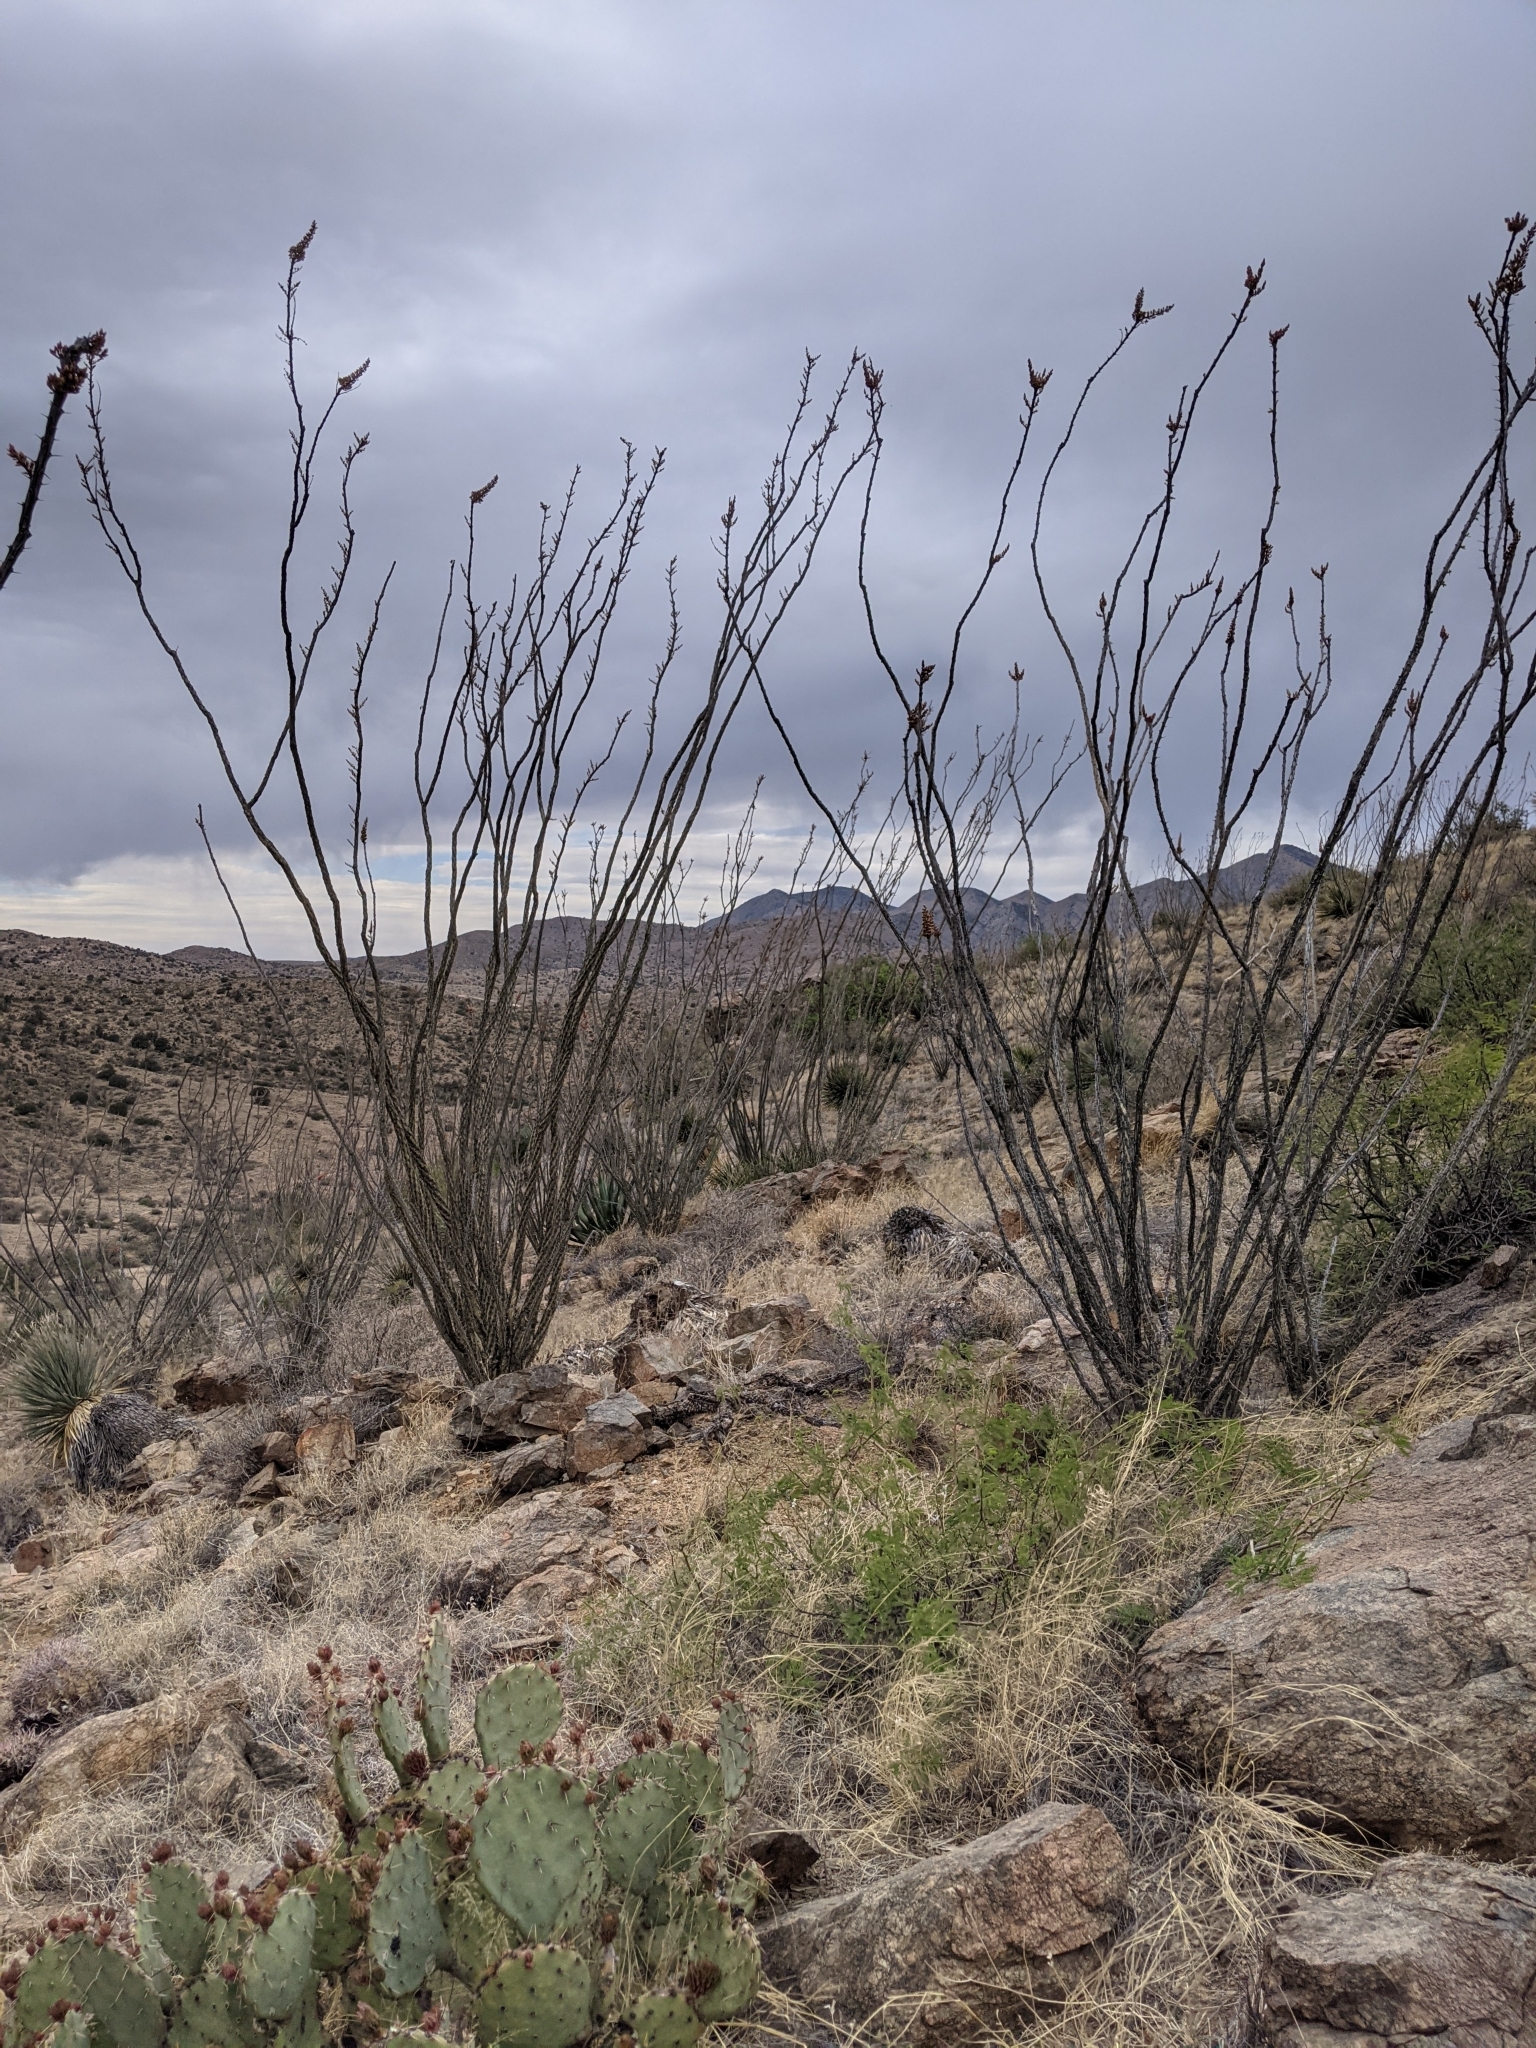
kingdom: Plantae
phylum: Tracheophyta
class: Magnoliopsida
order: Ericales
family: Fouquieriaceae
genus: Fouquieria
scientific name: Fouquieria splendens
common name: Vine-cactus
